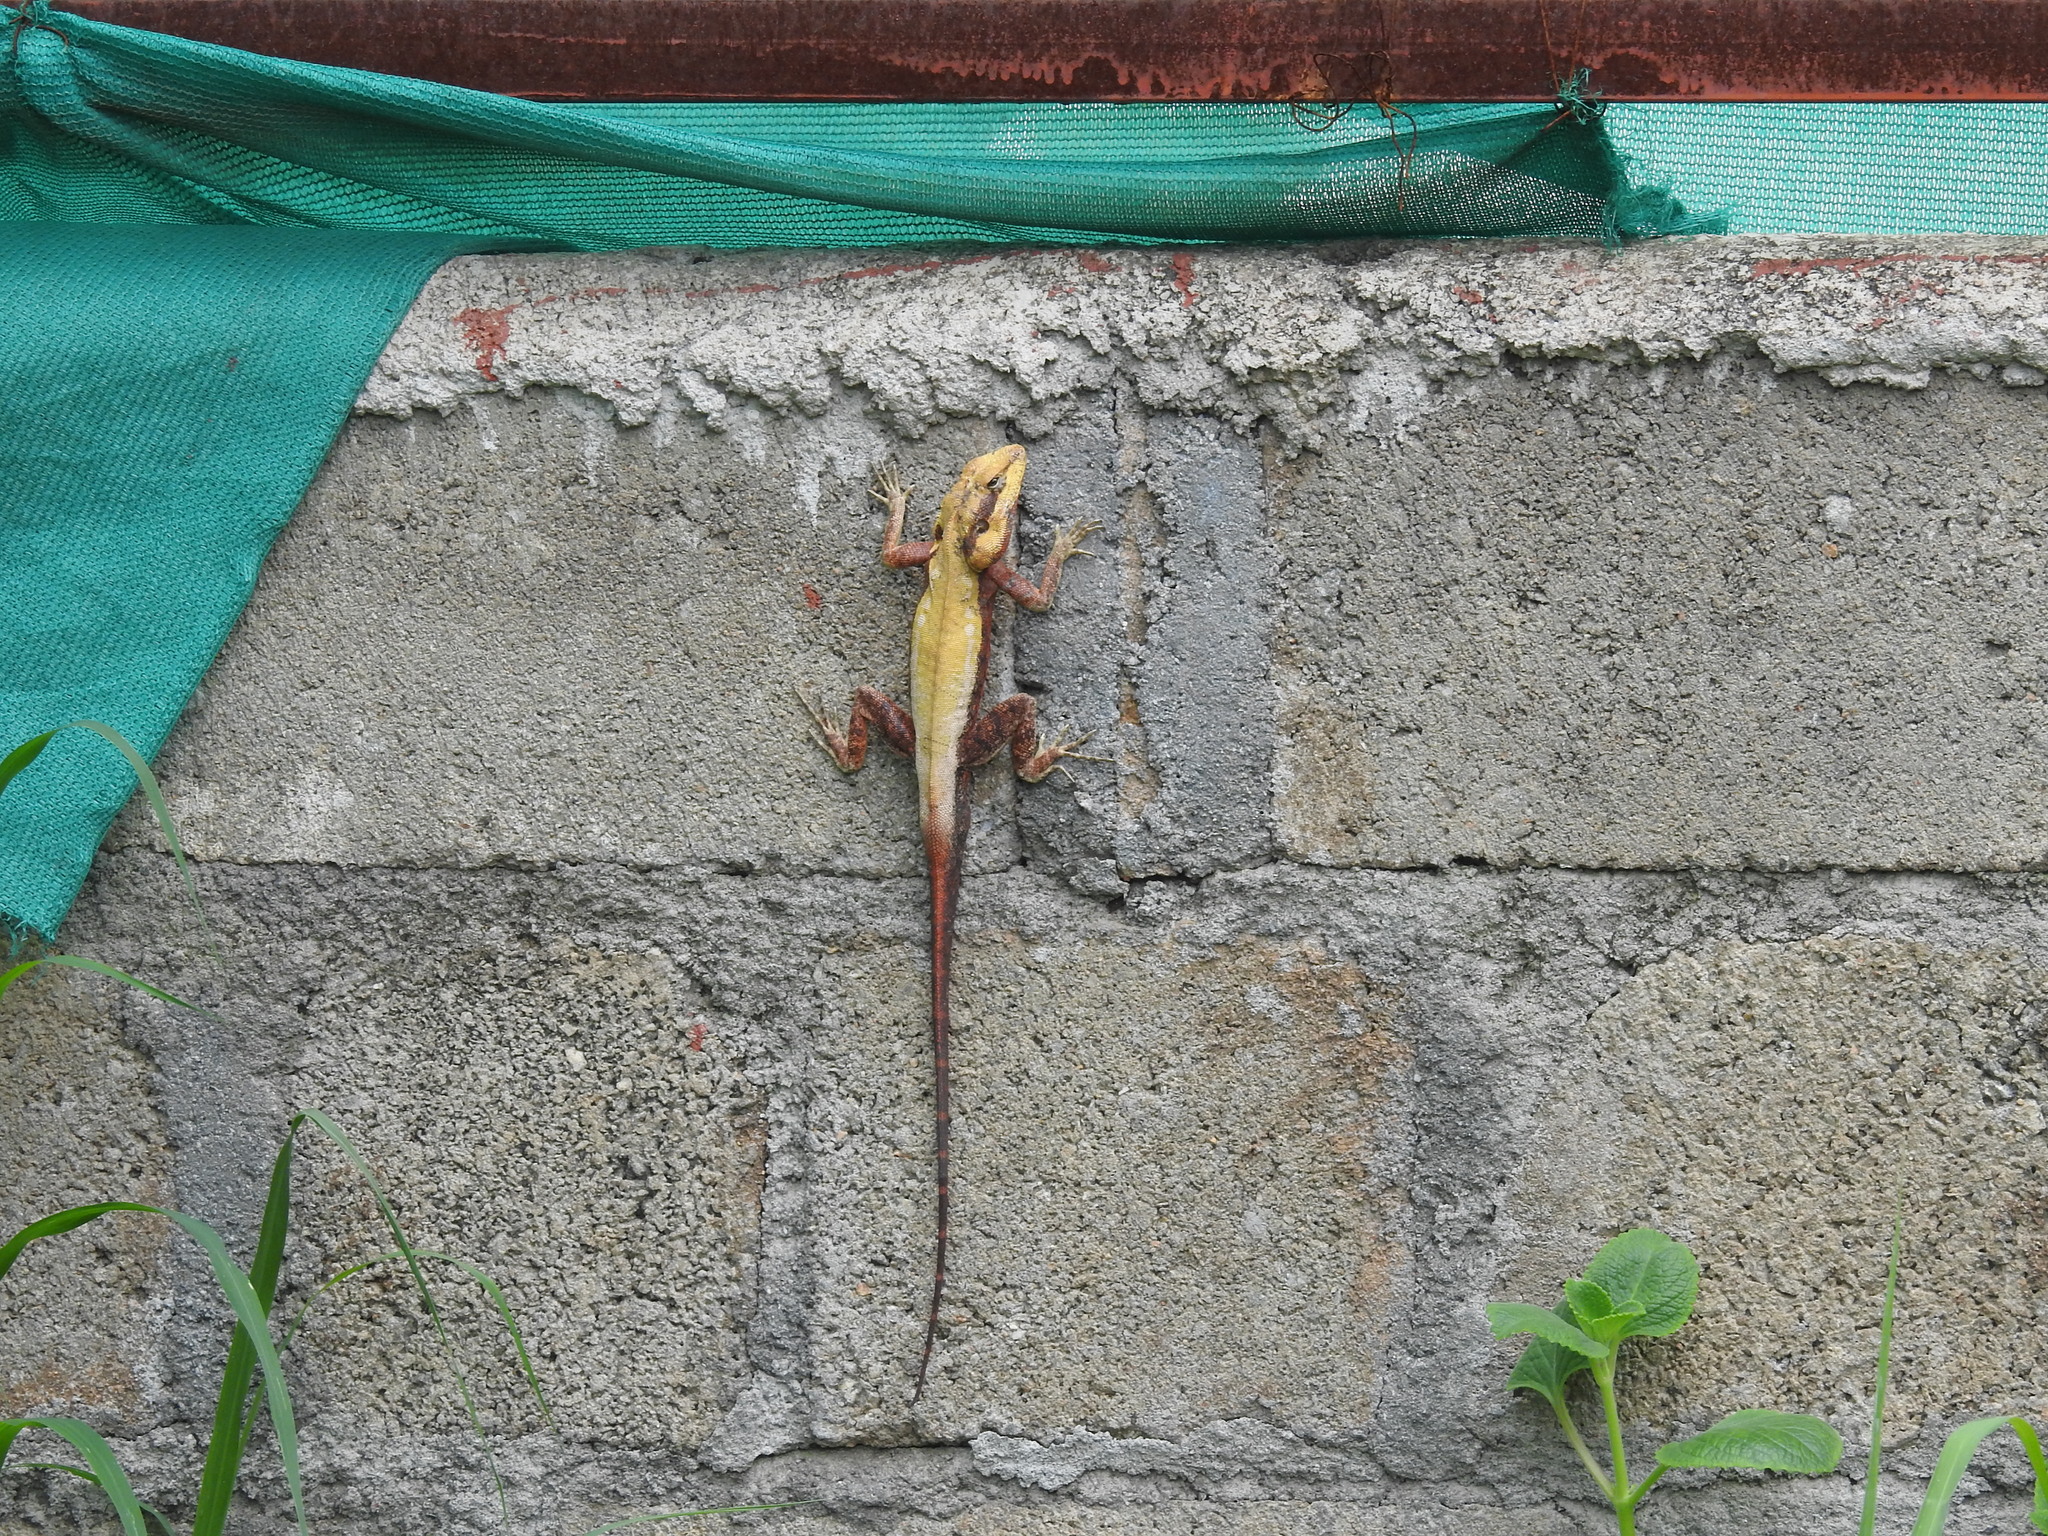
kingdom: Animalia
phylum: Chordata
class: Squamata
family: Agamidae
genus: Psammophilus
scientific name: Psammophilus dorsalis
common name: South indian rock agama
